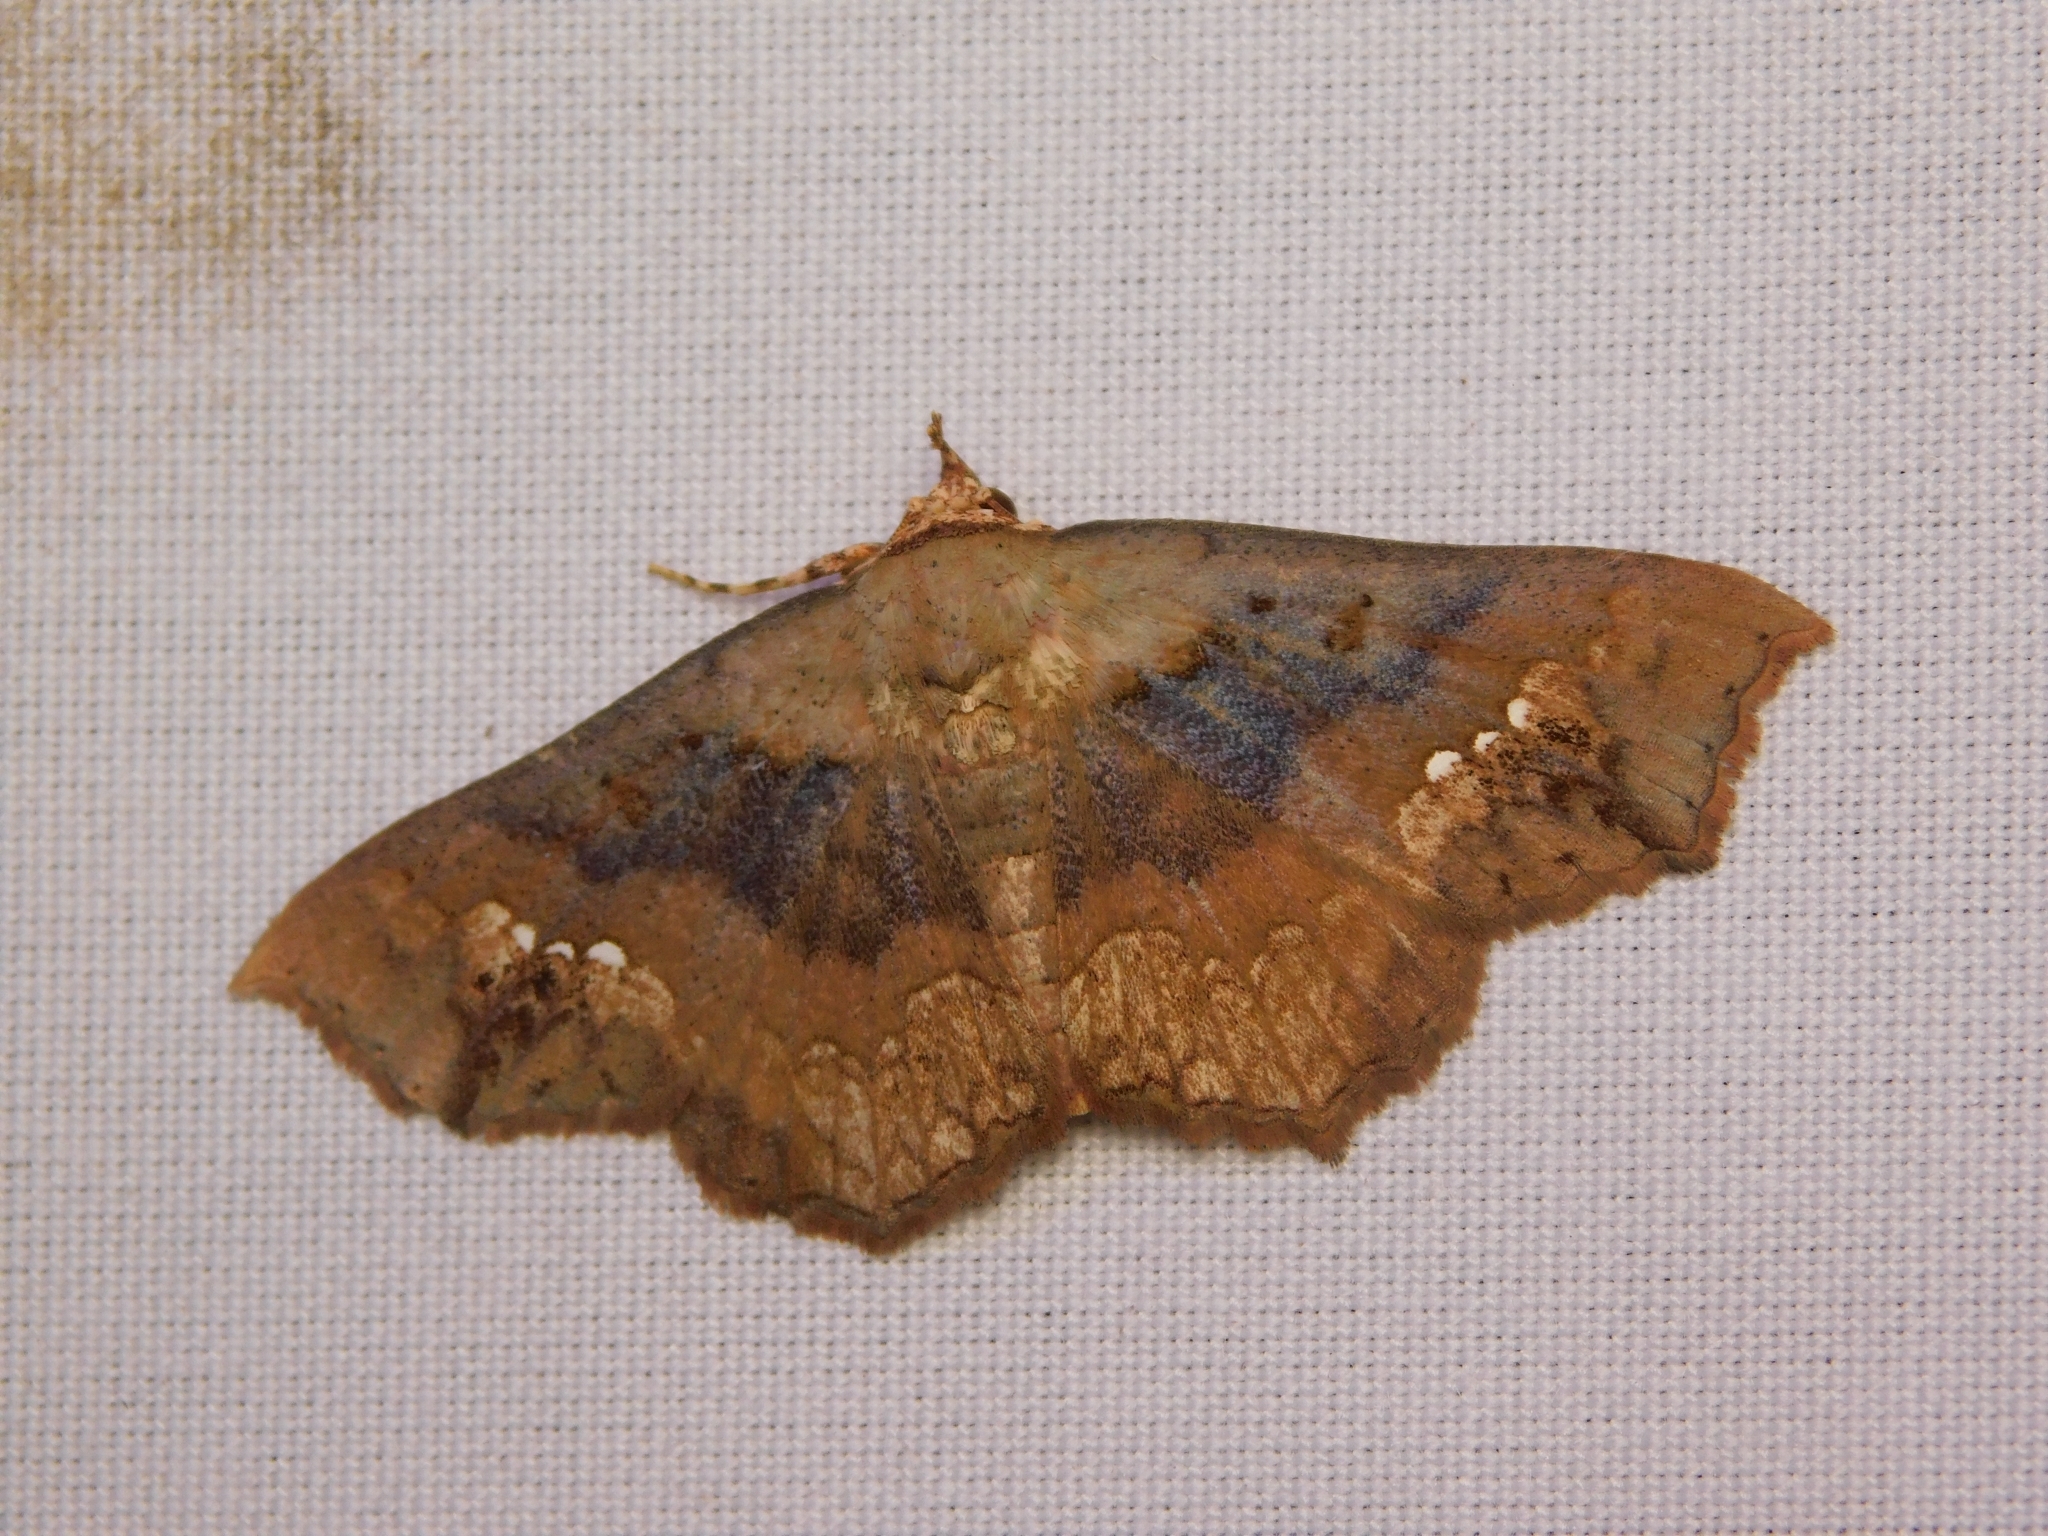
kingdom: Animalia
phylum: Arthropoda
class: Insecta
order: Lepidoptera
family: Erebidae
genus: Lopharthrum
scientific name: Lopharthrum comprimens
